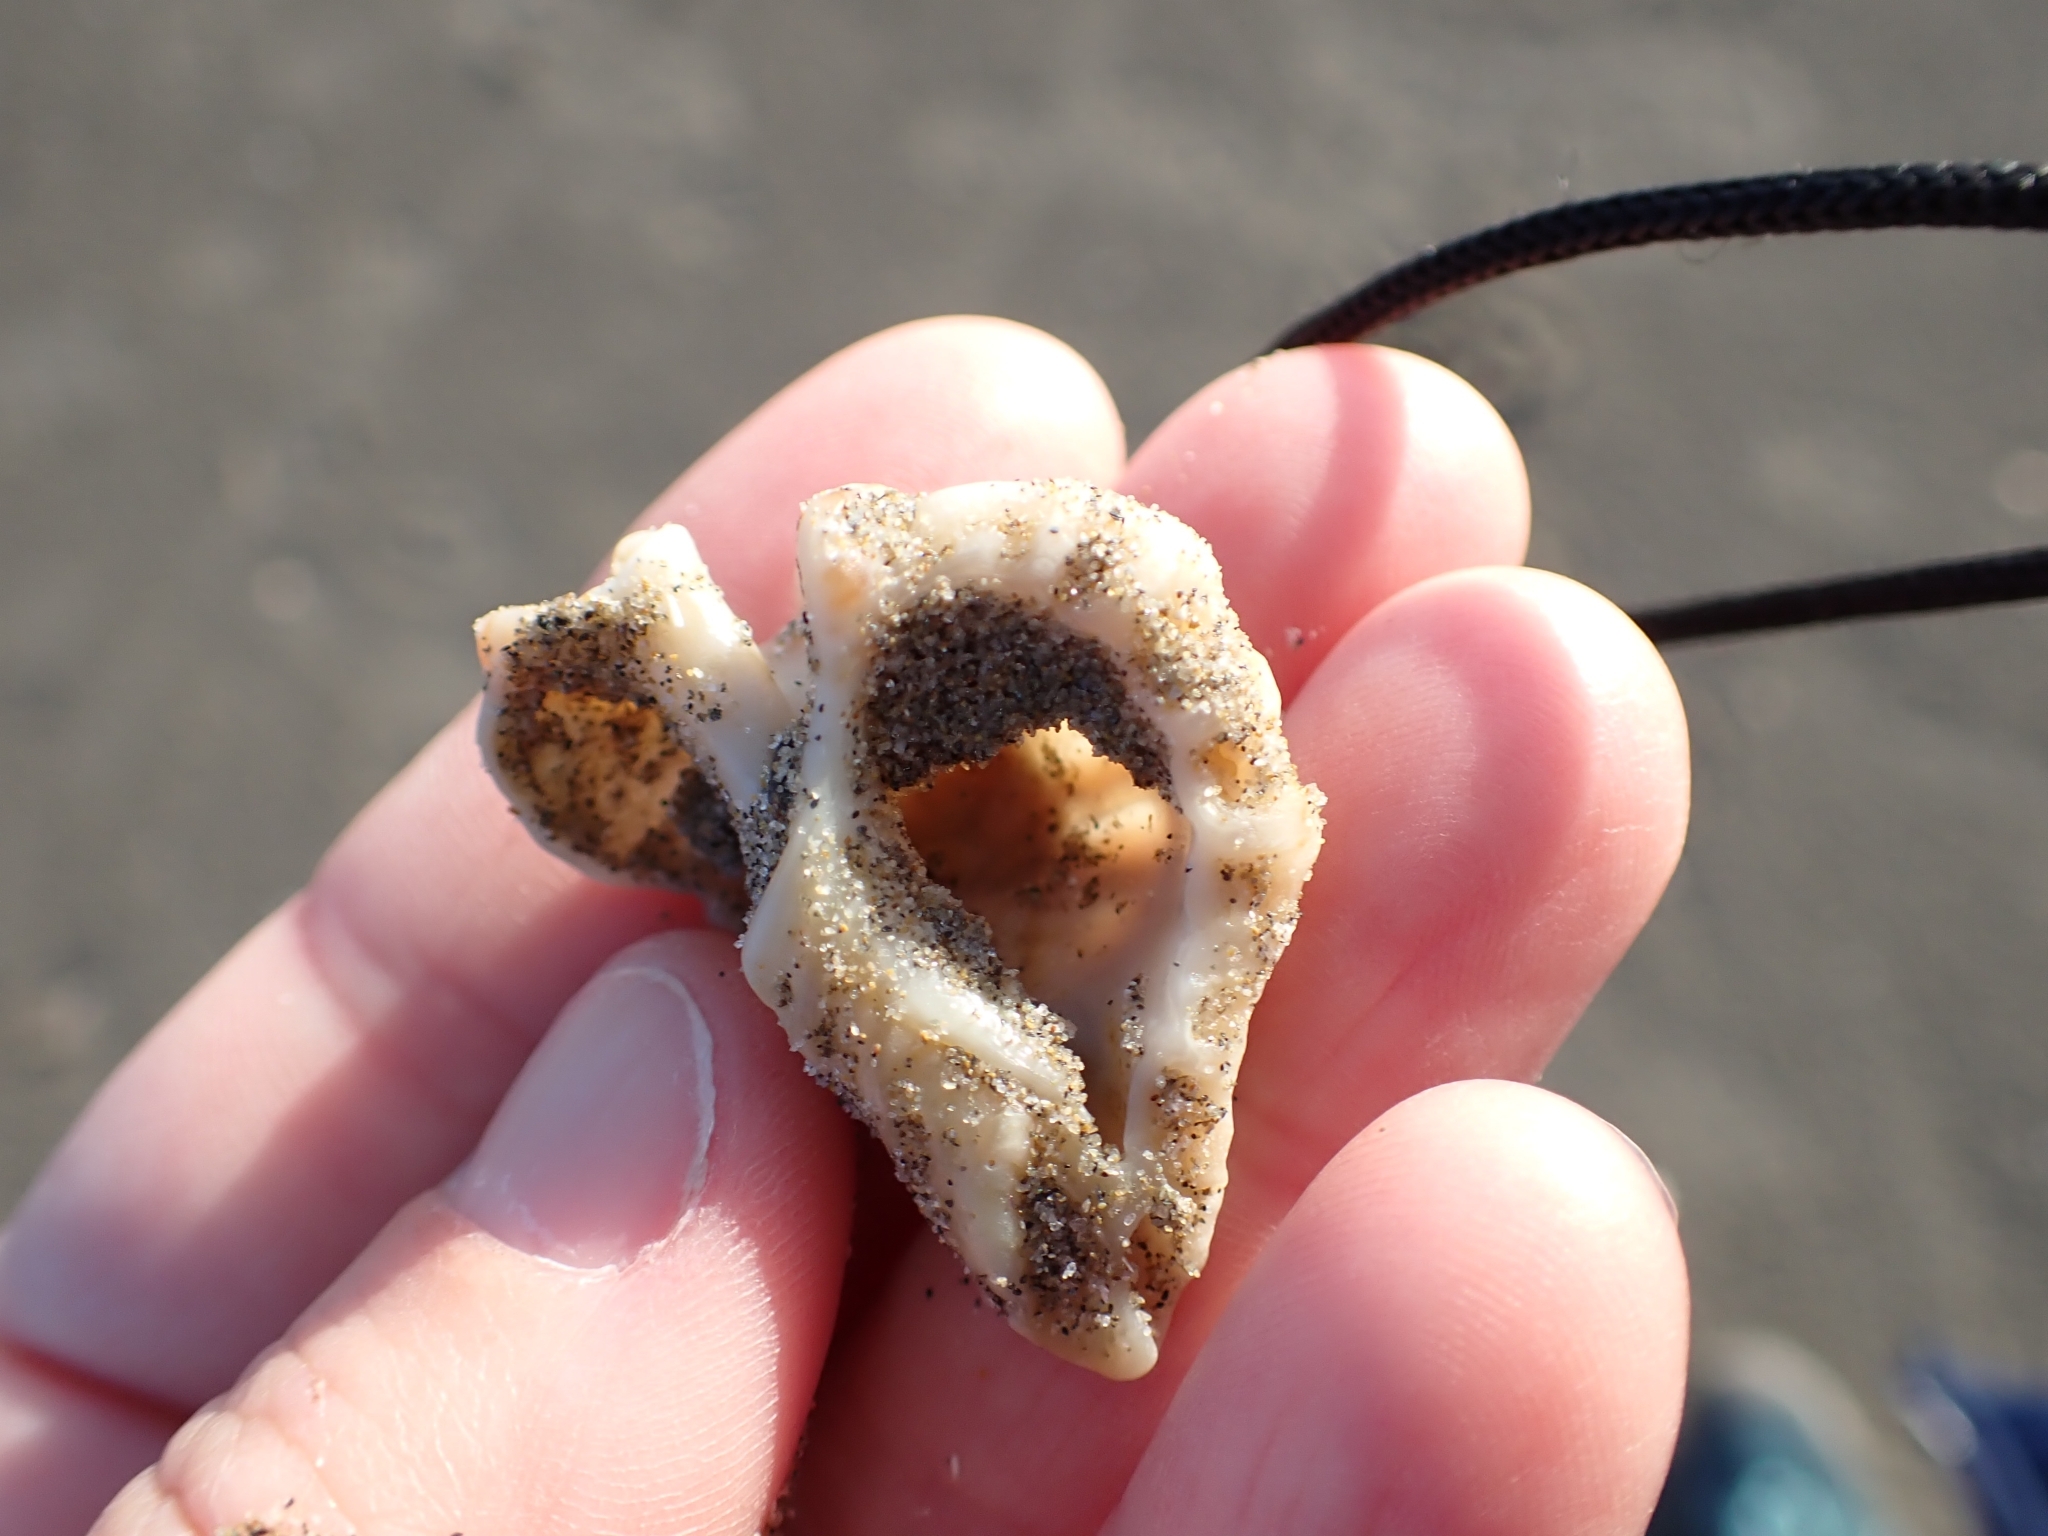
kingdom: Animalia
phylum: Mollusca
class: Gastropoda
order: Neogastropoda
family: Muricidae
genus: Ocenebra
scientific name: Ocenebra erinaceus
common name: European sting winkle
